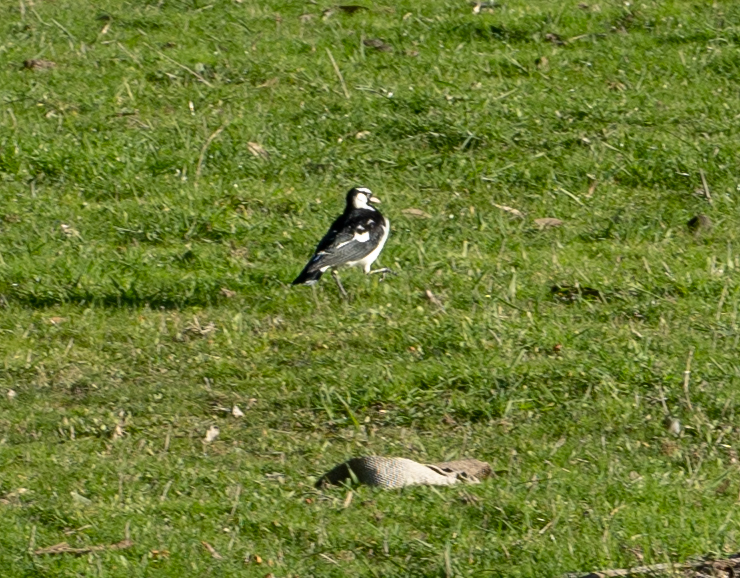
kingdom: Animalia
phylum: Chordata
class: Aves
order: Passeriformes
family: Monarchidae
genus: Grallina
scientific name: Grallina cyanoleuca
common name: Magpie-lark
